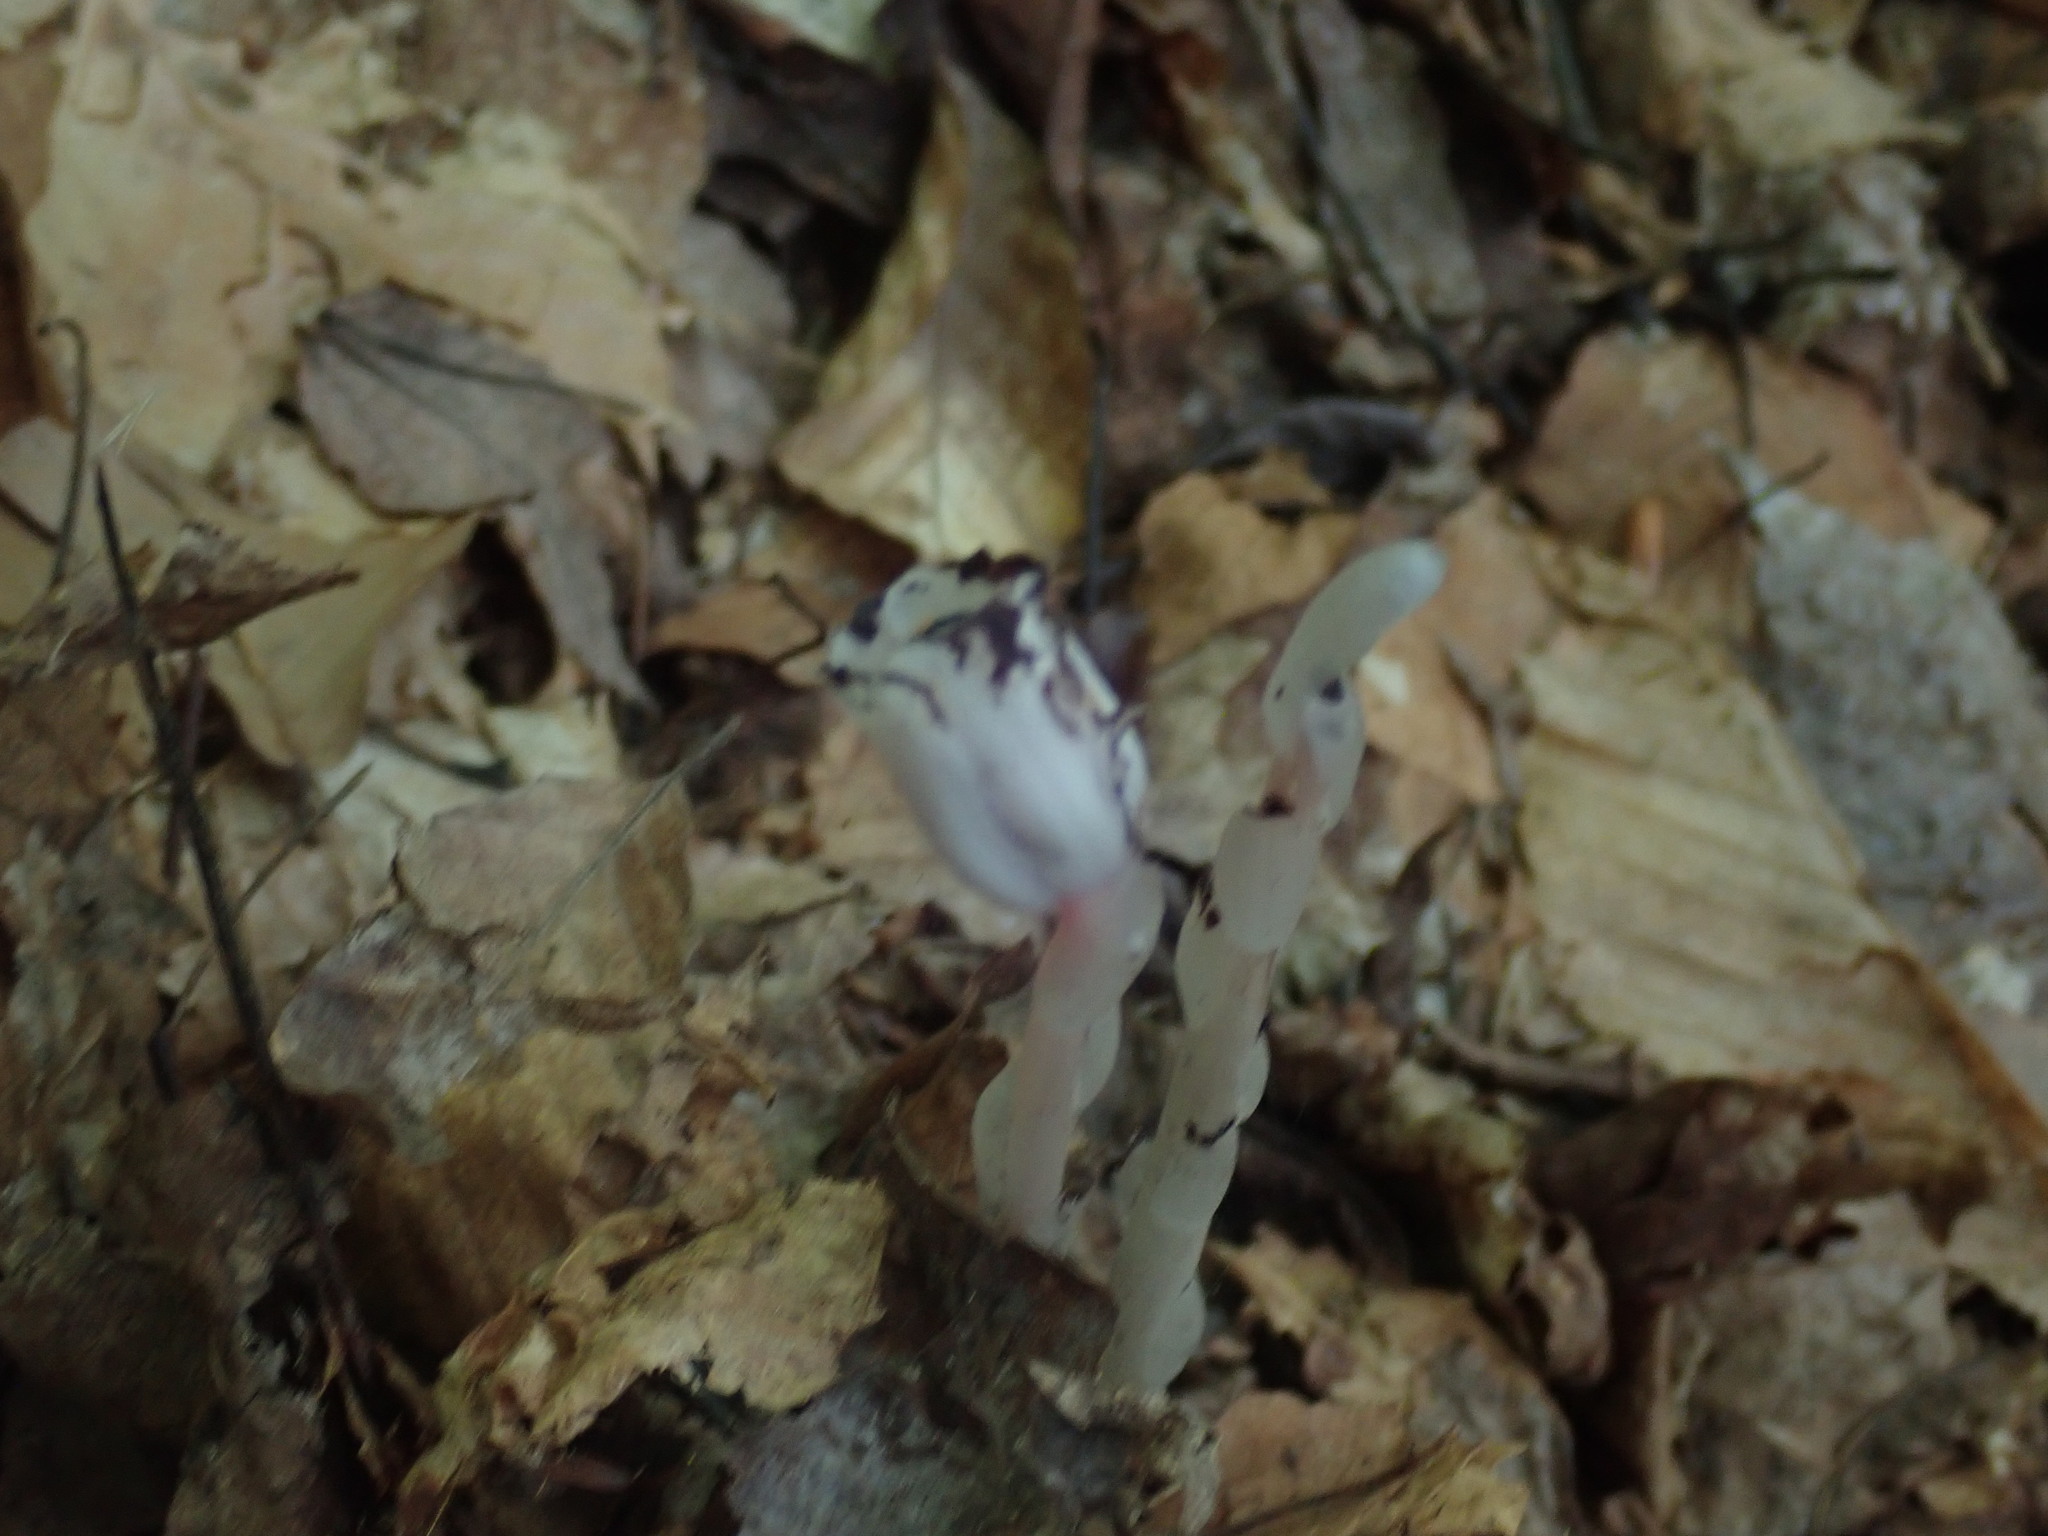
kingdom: Plantae
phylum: Tracheophyta
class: Magnoliopsida
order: Ericales
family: Ericaceae
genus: Monotropa
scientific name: Monotropa uniflora
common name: Convulsion root
